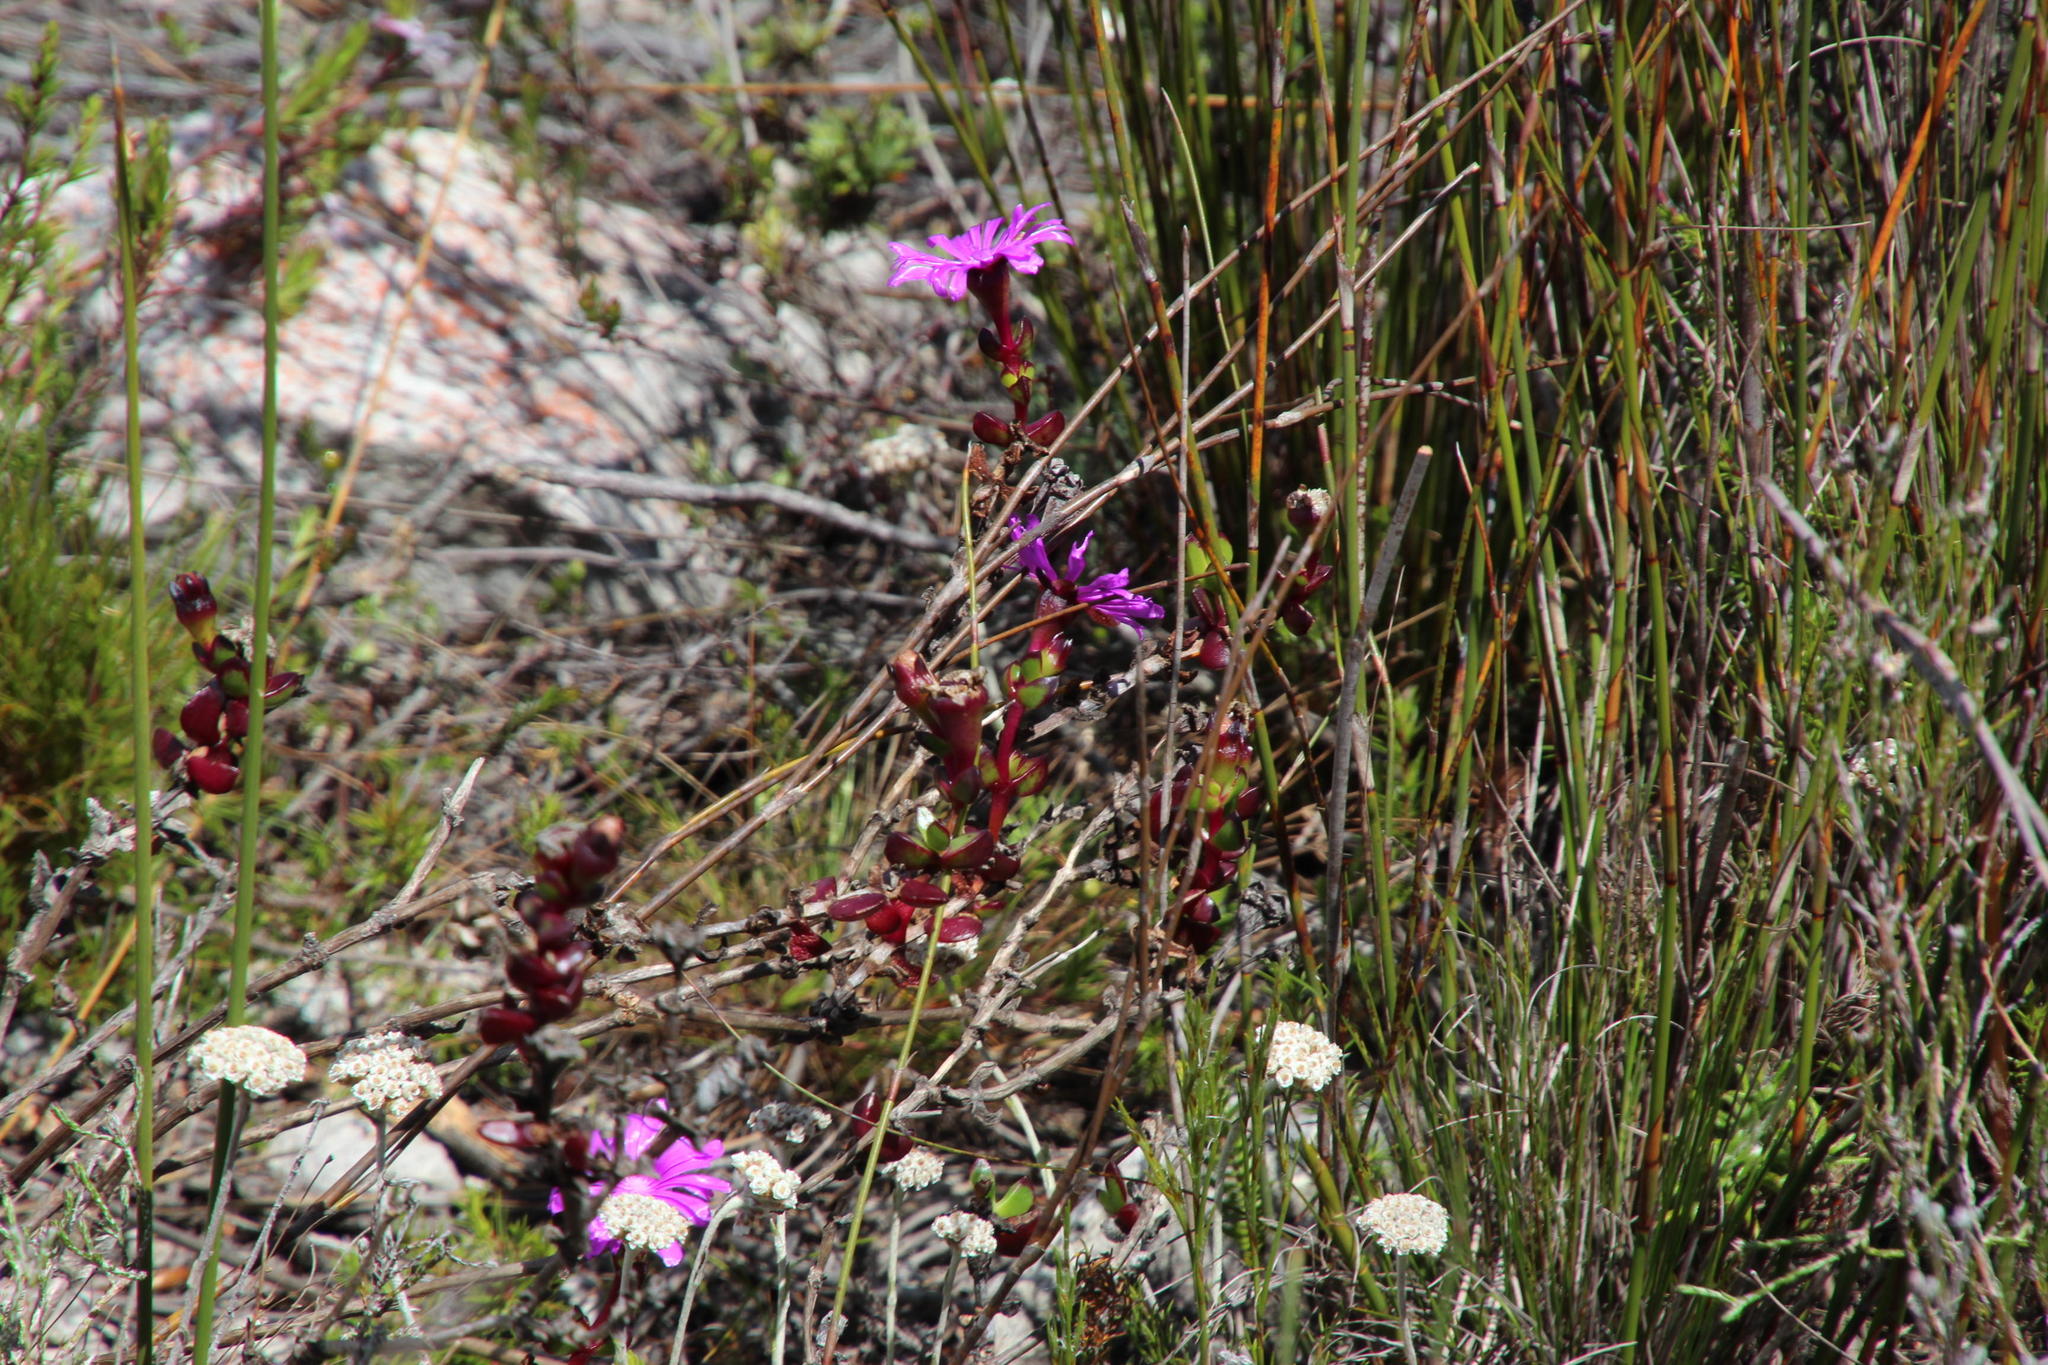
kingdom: Plantae
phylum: Tracheophyta
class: Magnoliopsida
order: Caryophyllales
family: Aizoaceae
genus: Erepsia
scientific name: Erepsia inclaudens
